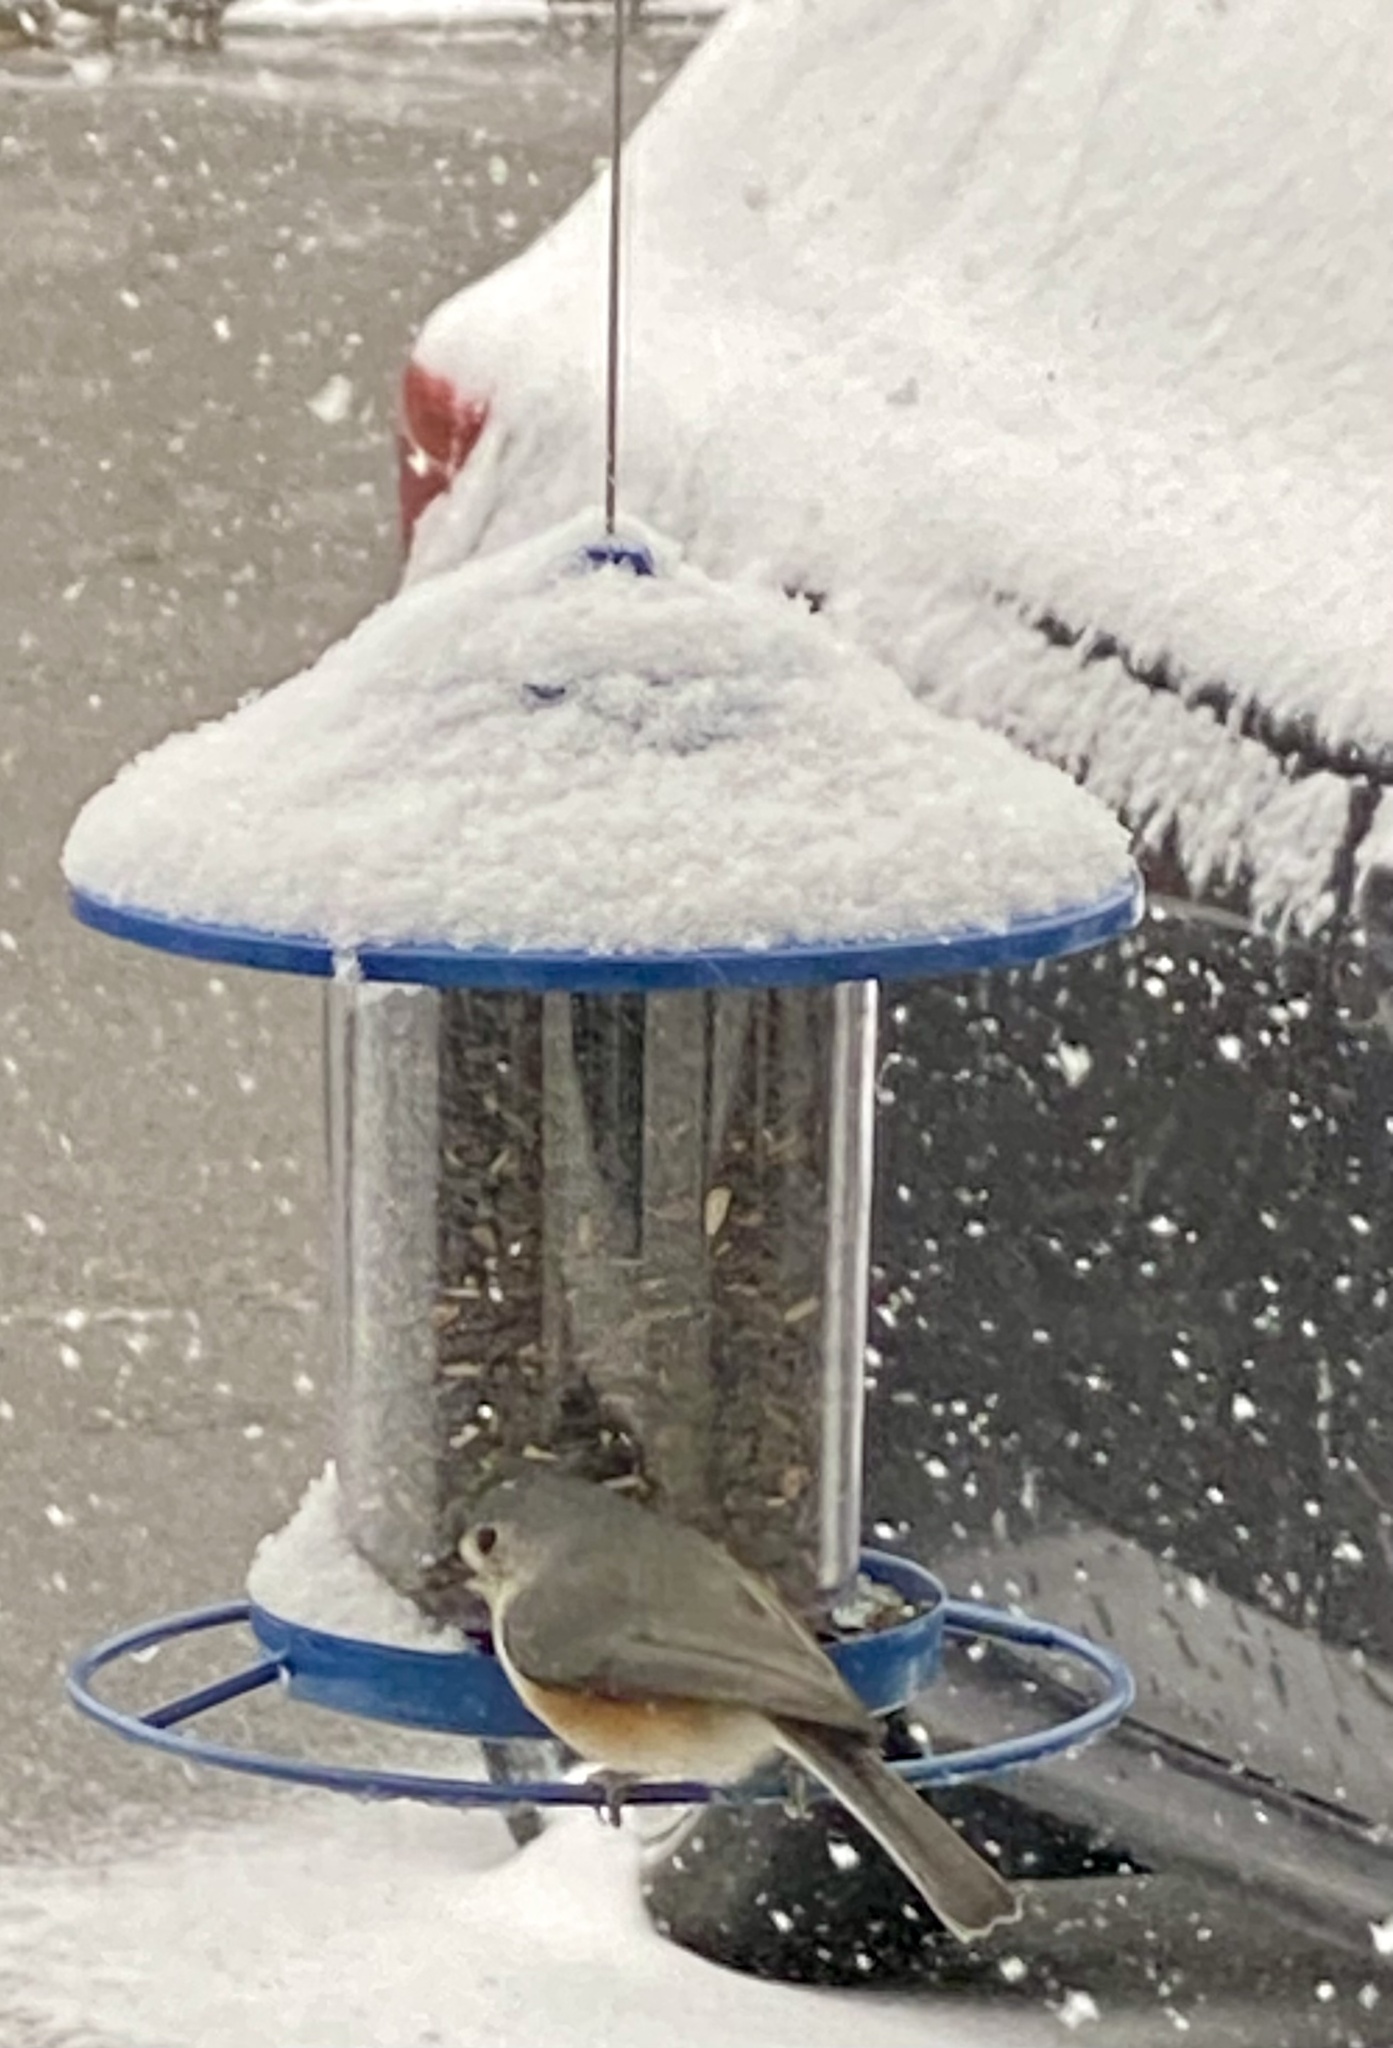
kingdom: Animalia
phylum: Chordata
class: Aves
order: Passeriformes
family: Paridae
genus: Baeolophus
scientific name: Baeolophus bicolor
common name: Tufted titmouse
